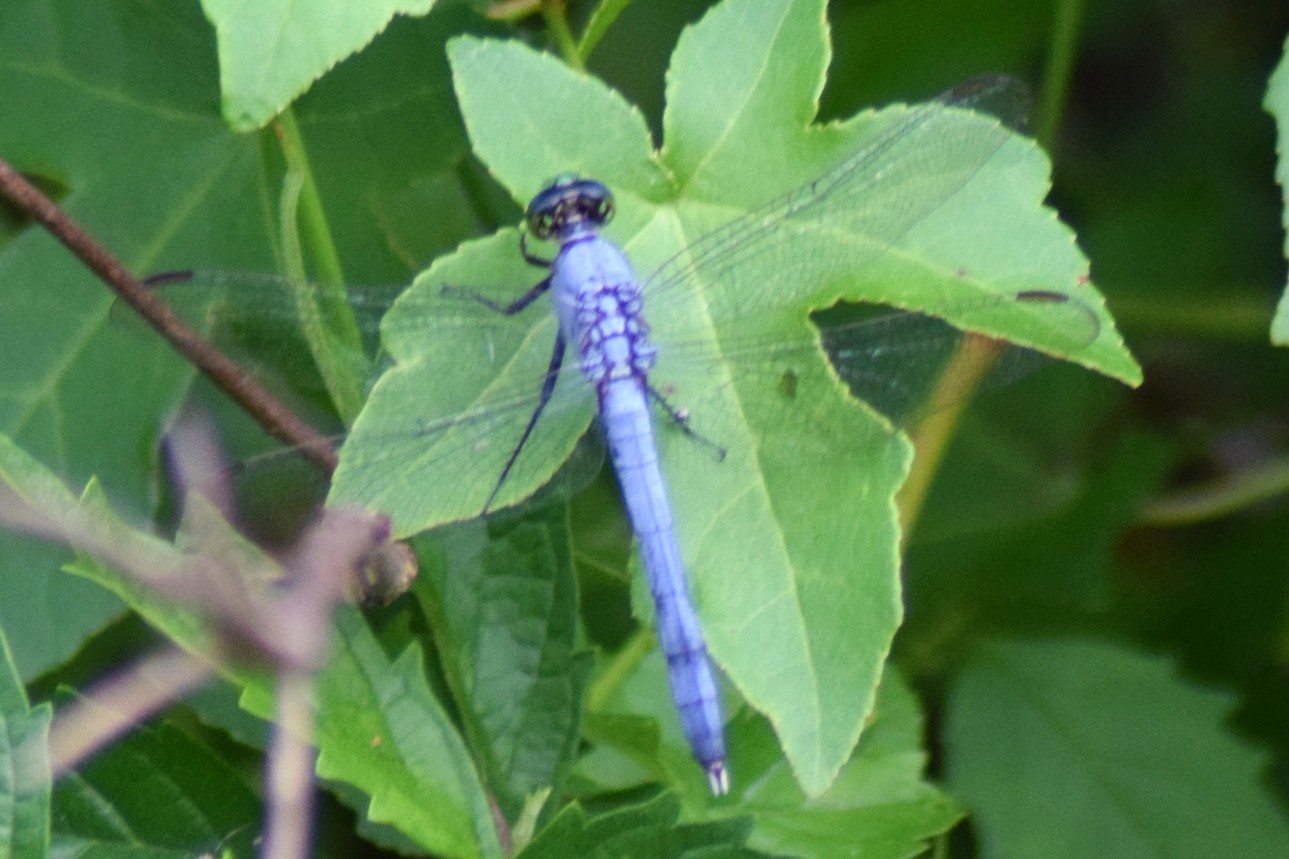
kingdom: Animalia
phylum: Arthropoda
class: Insecta
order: Odonata
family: Libellulidae
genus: Erythemis
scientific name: Erythemis simplicicollis
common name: Eastern pondhawk
